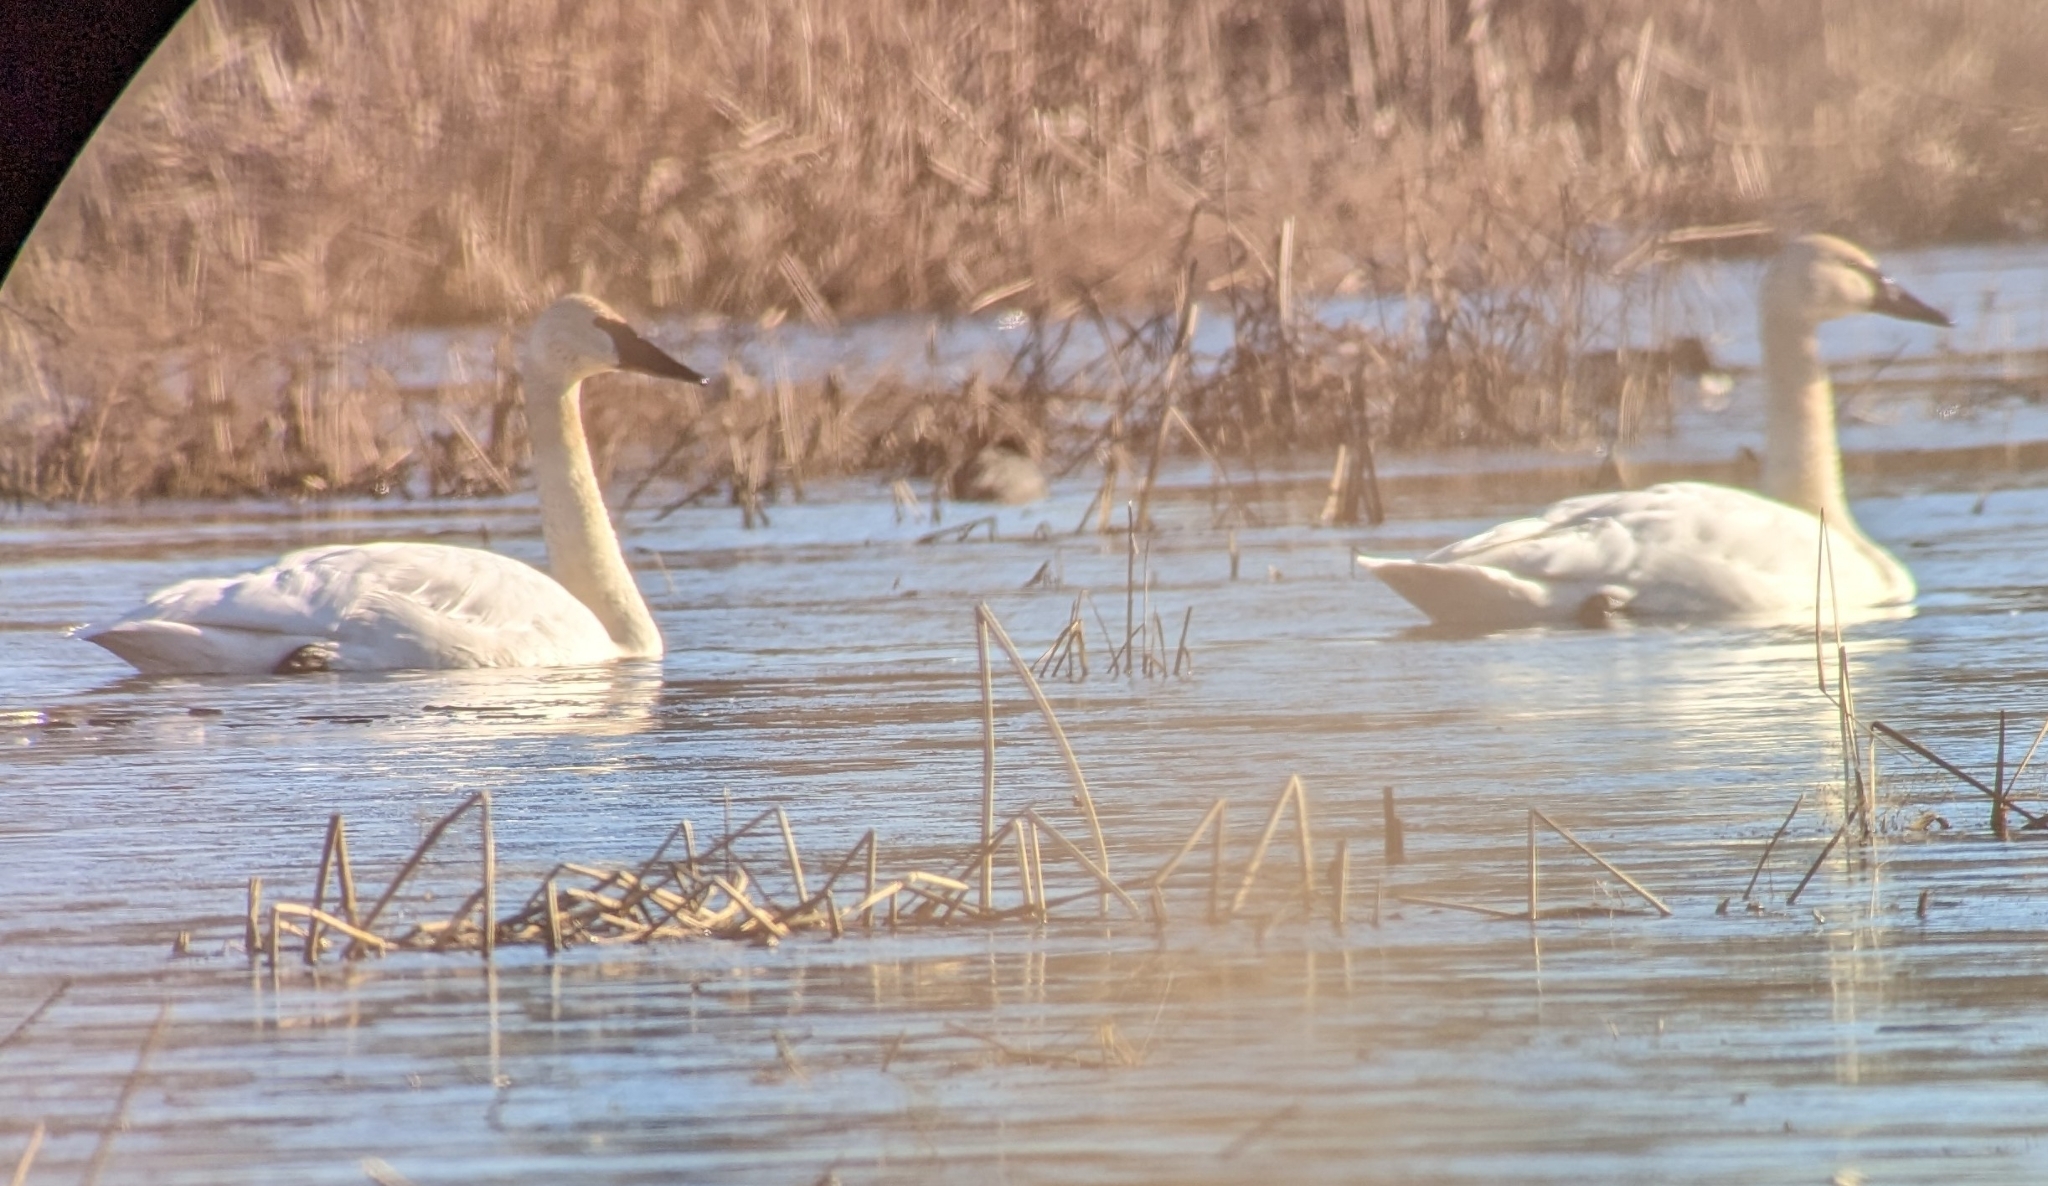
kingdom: Animalia
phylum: Chordata
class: Aves
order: Anseriformes
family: Anatidae
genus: Cygnus
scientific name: Cygnus buccinator
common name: Trumpeter swan
